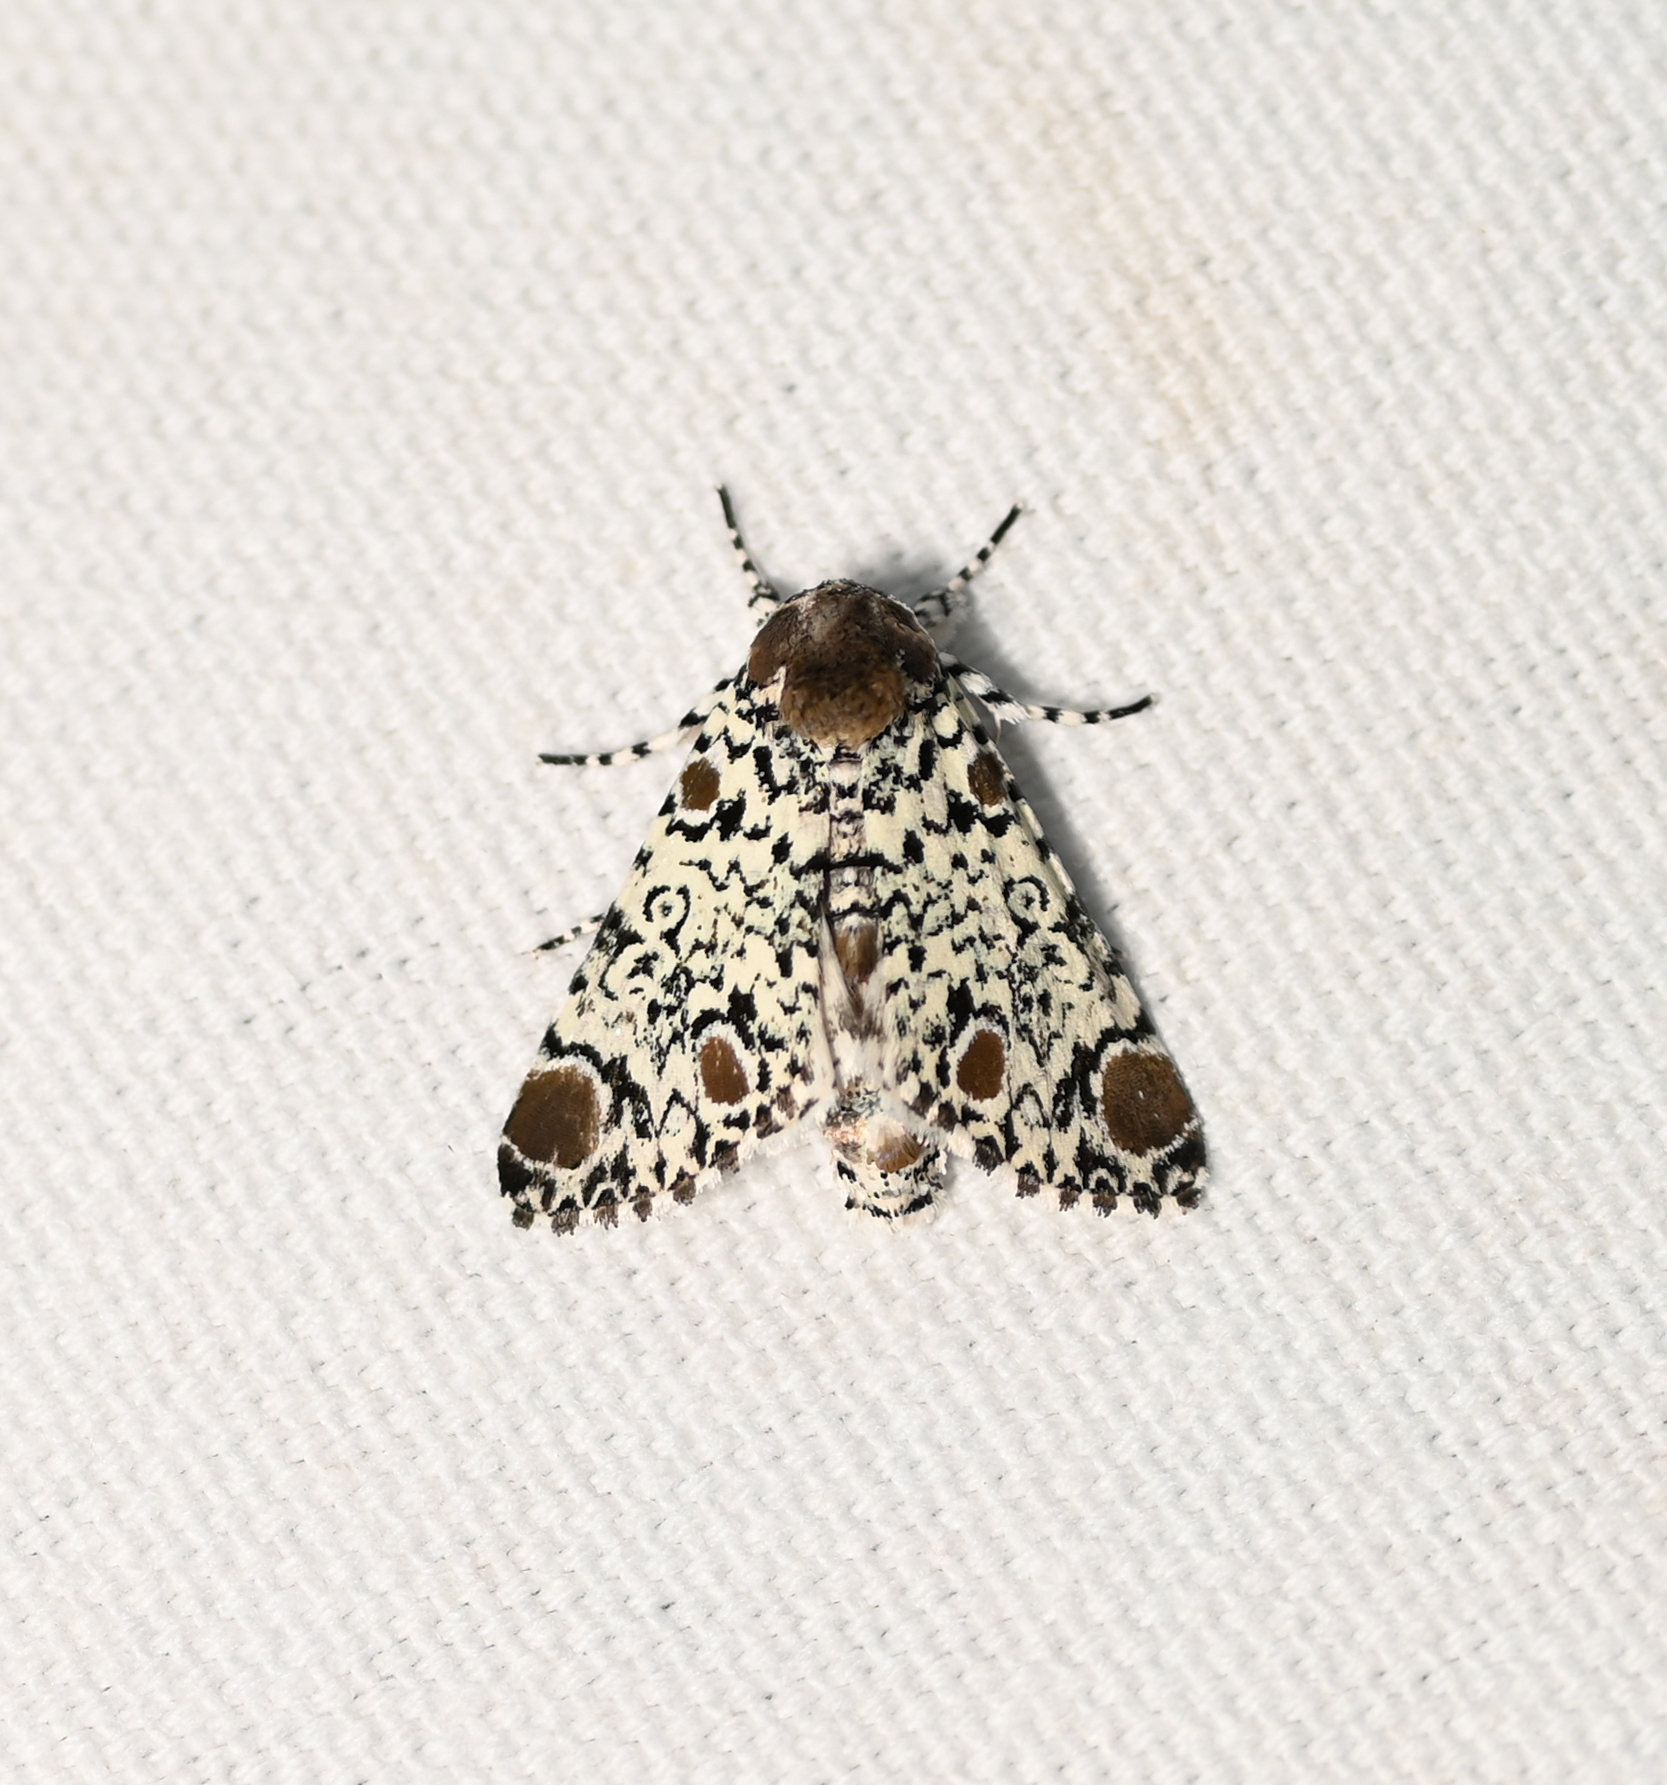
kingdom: Animalia
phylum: Arthropoda
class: Insecta
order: Lepidoptera
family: Noctuidae
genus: Harrisimemna
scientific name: Harrisimemna trisignata
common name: Harris threespot
